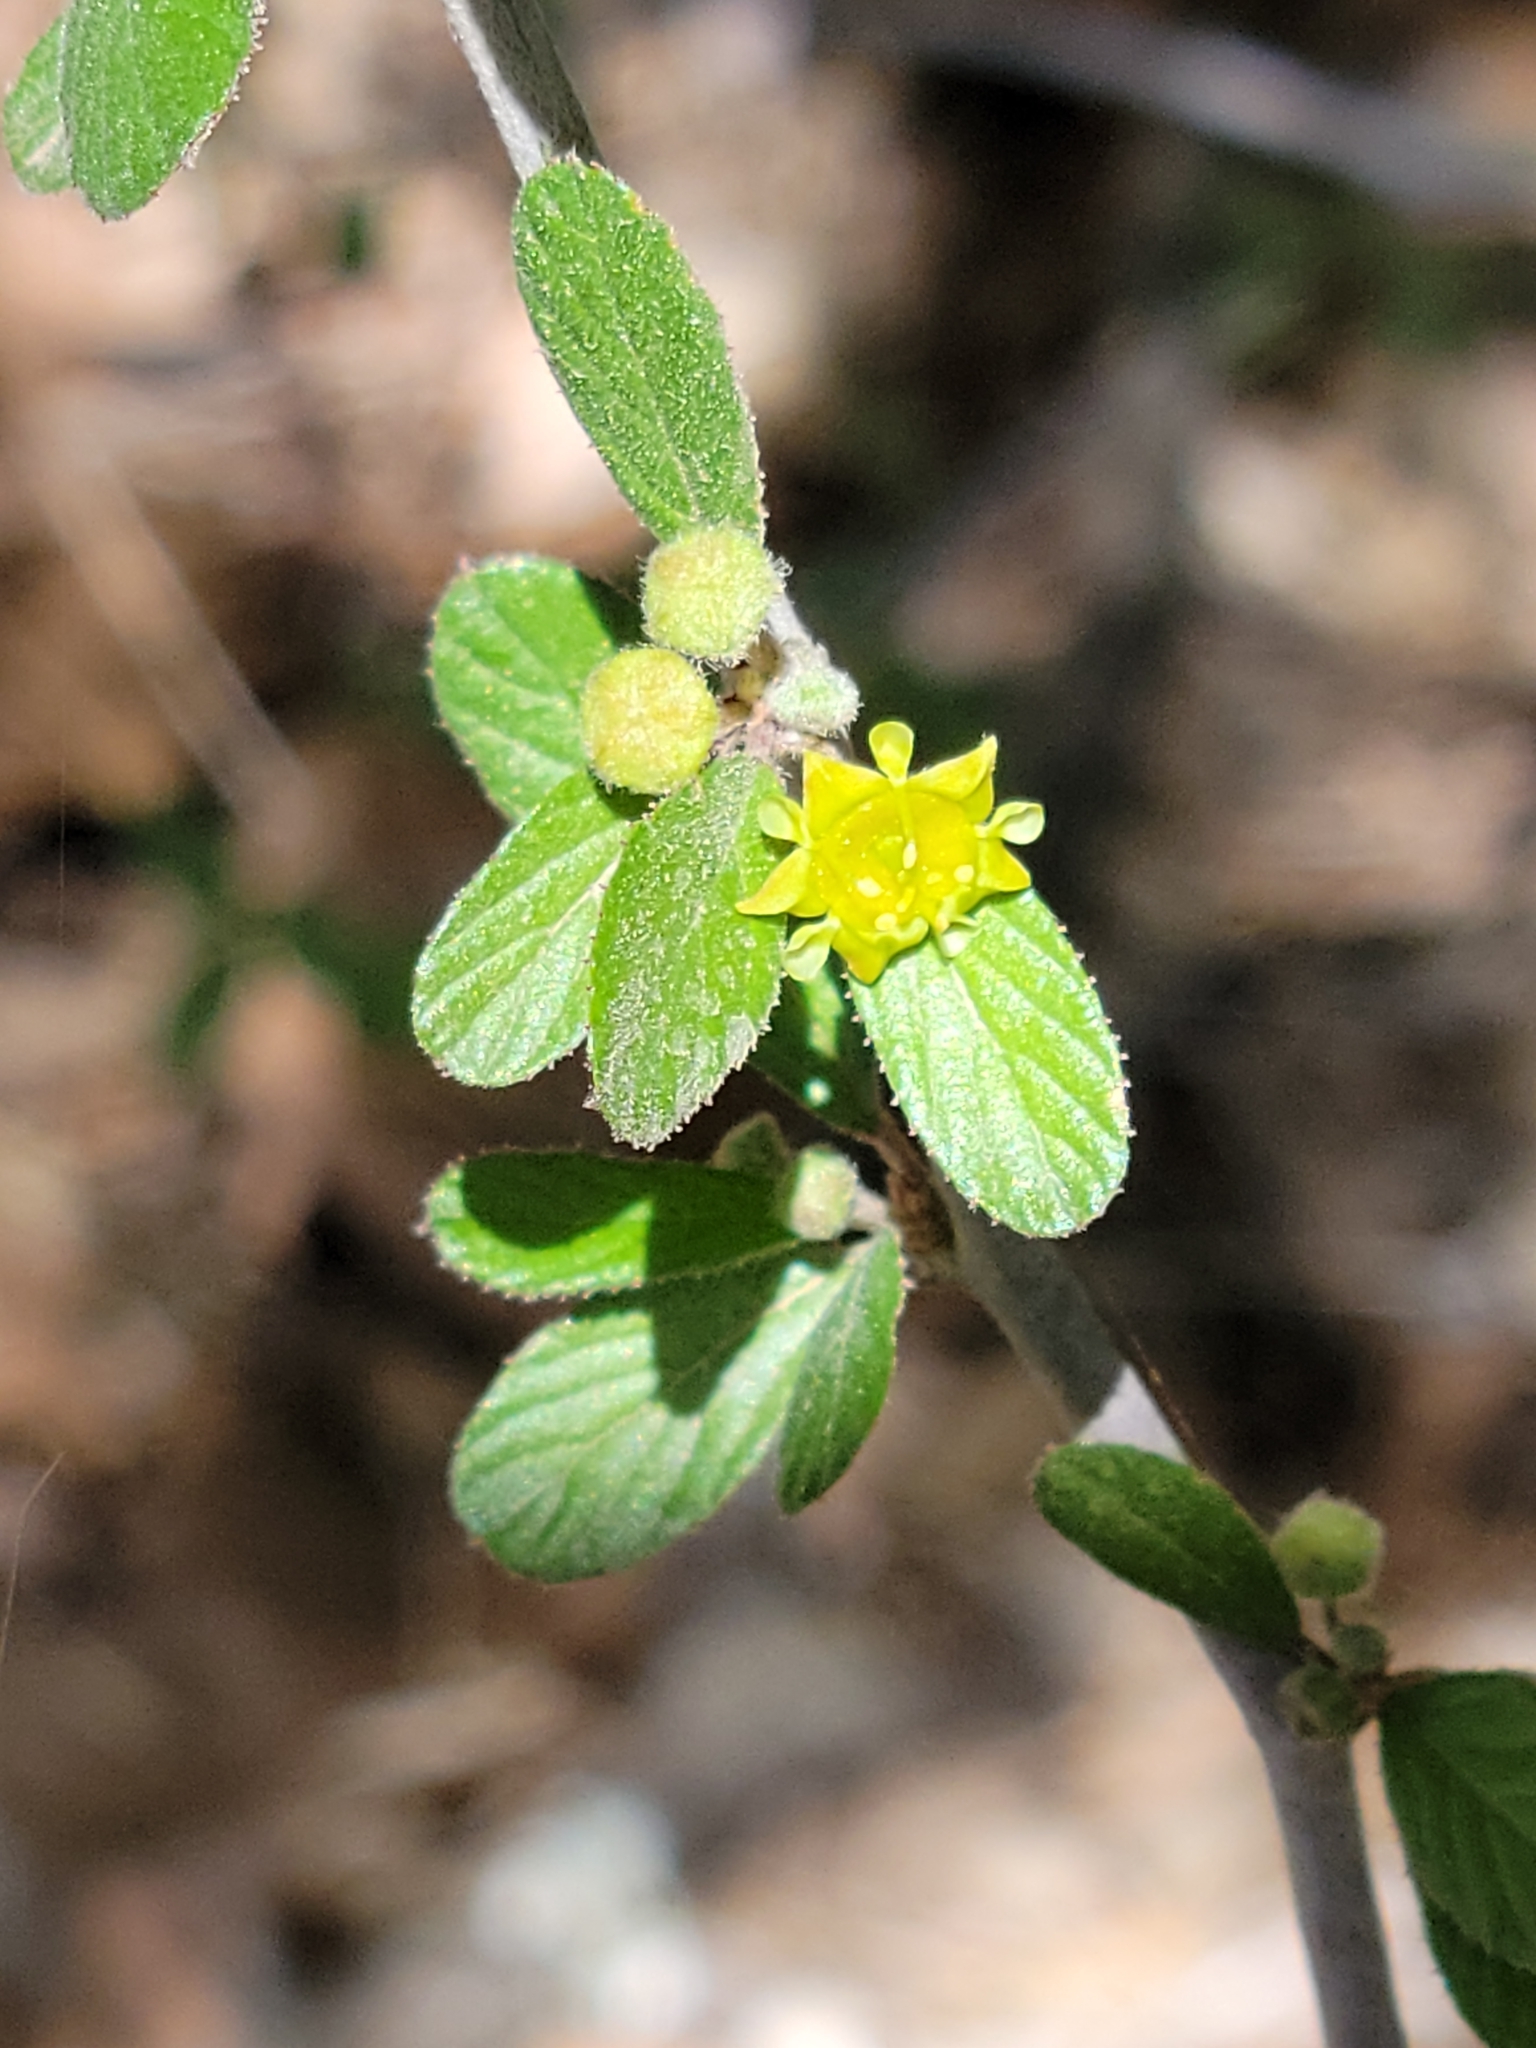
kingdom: Plantae
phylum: Tracheophyta
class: Magnoliopsida
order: Rosales
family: Rhamnaceae
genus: Colubrina
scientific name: Colubrina texensis
